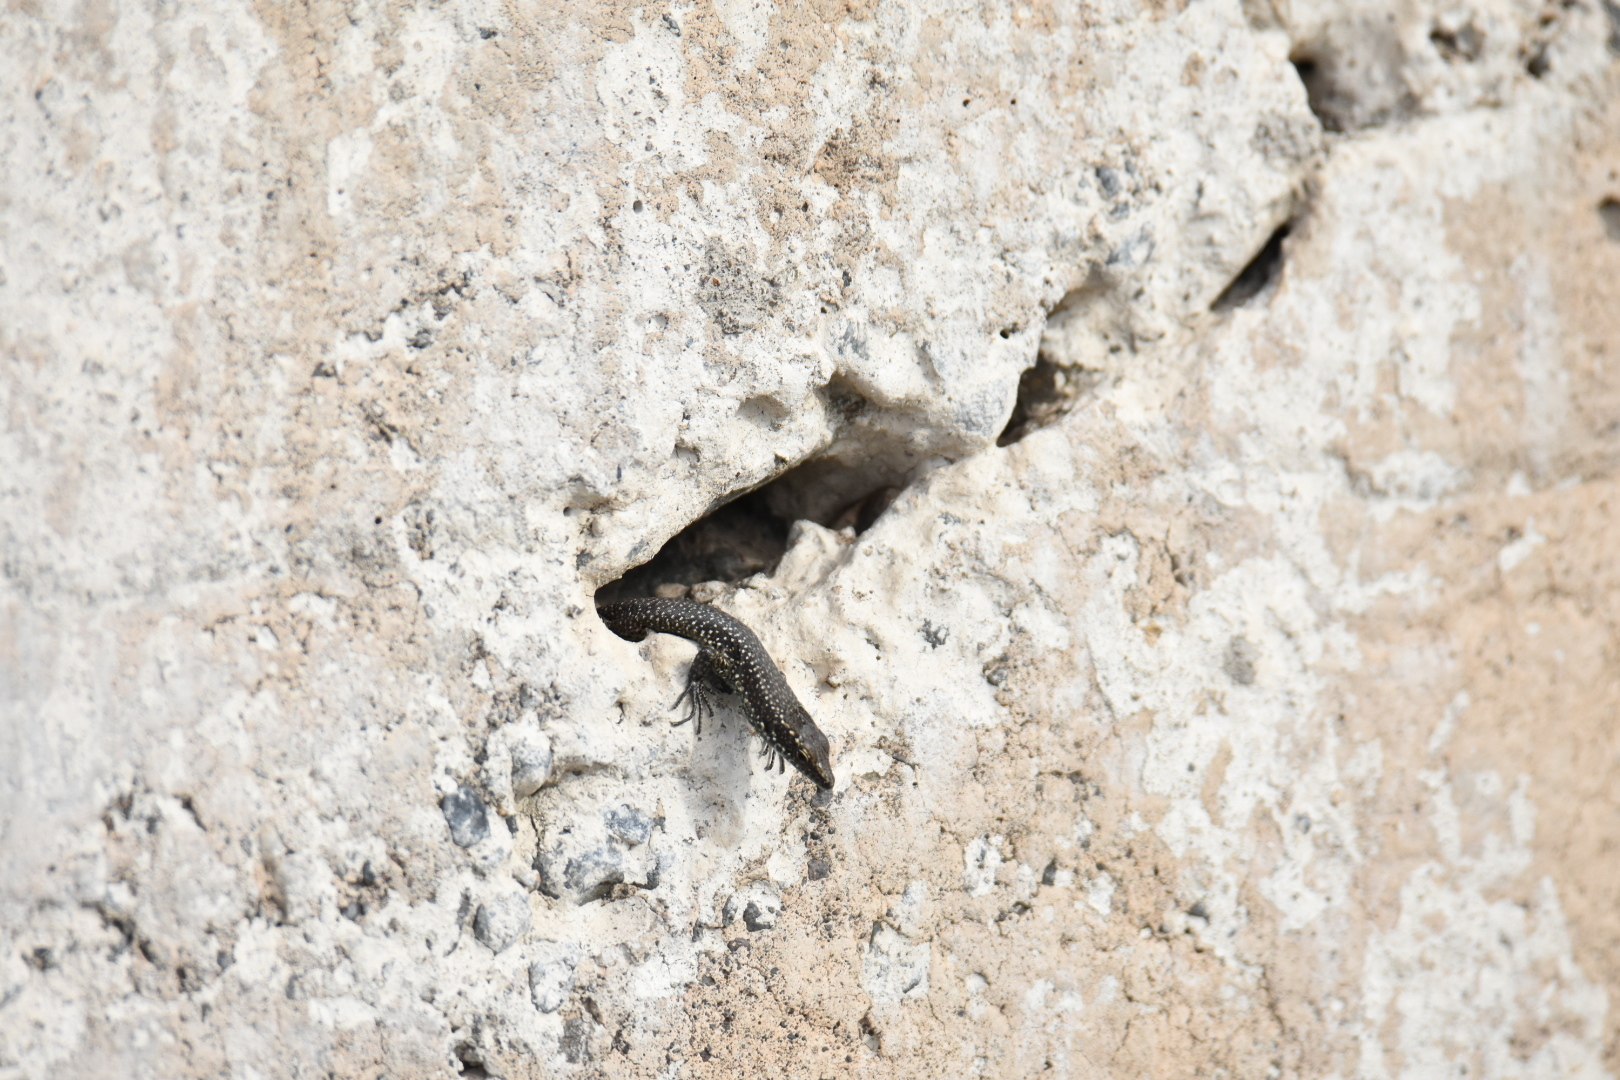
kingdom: Animalia
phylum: Chordata
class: Squamata
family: Lacertidae
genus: Teira
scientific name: Teira dugesii
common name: Madeira lizard
